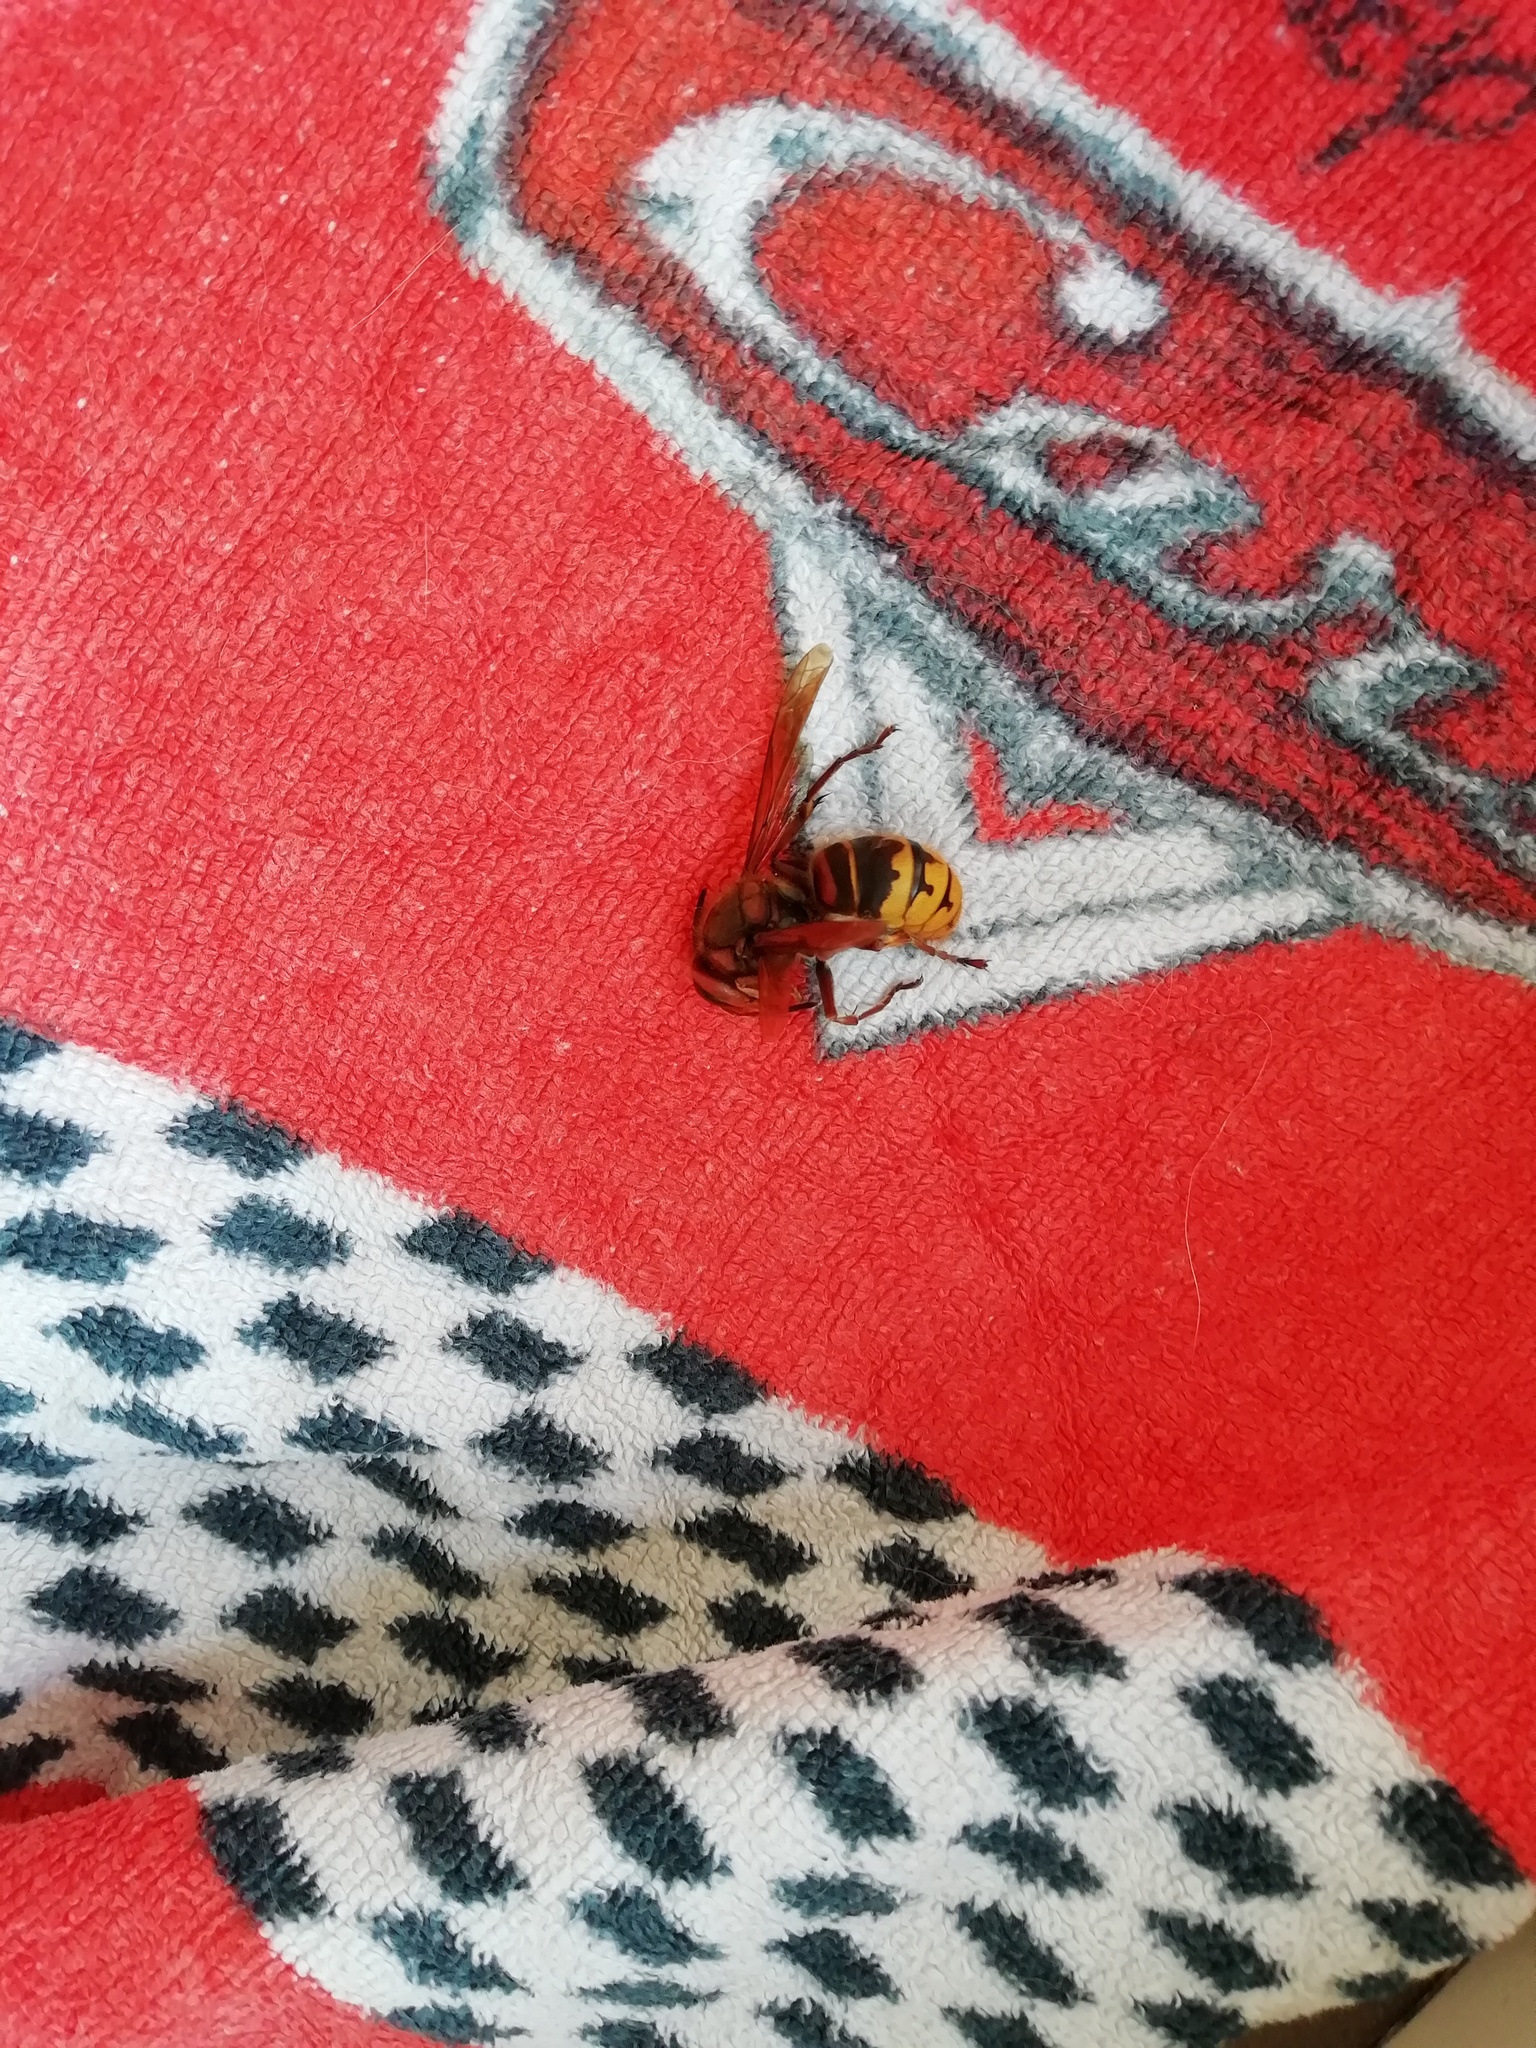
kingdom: Animalia
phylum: Arthropoda
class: Insecta
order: Hymenoptera
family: Vespidae
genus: Vespa
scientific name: Vespa crabro
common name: Hornet
